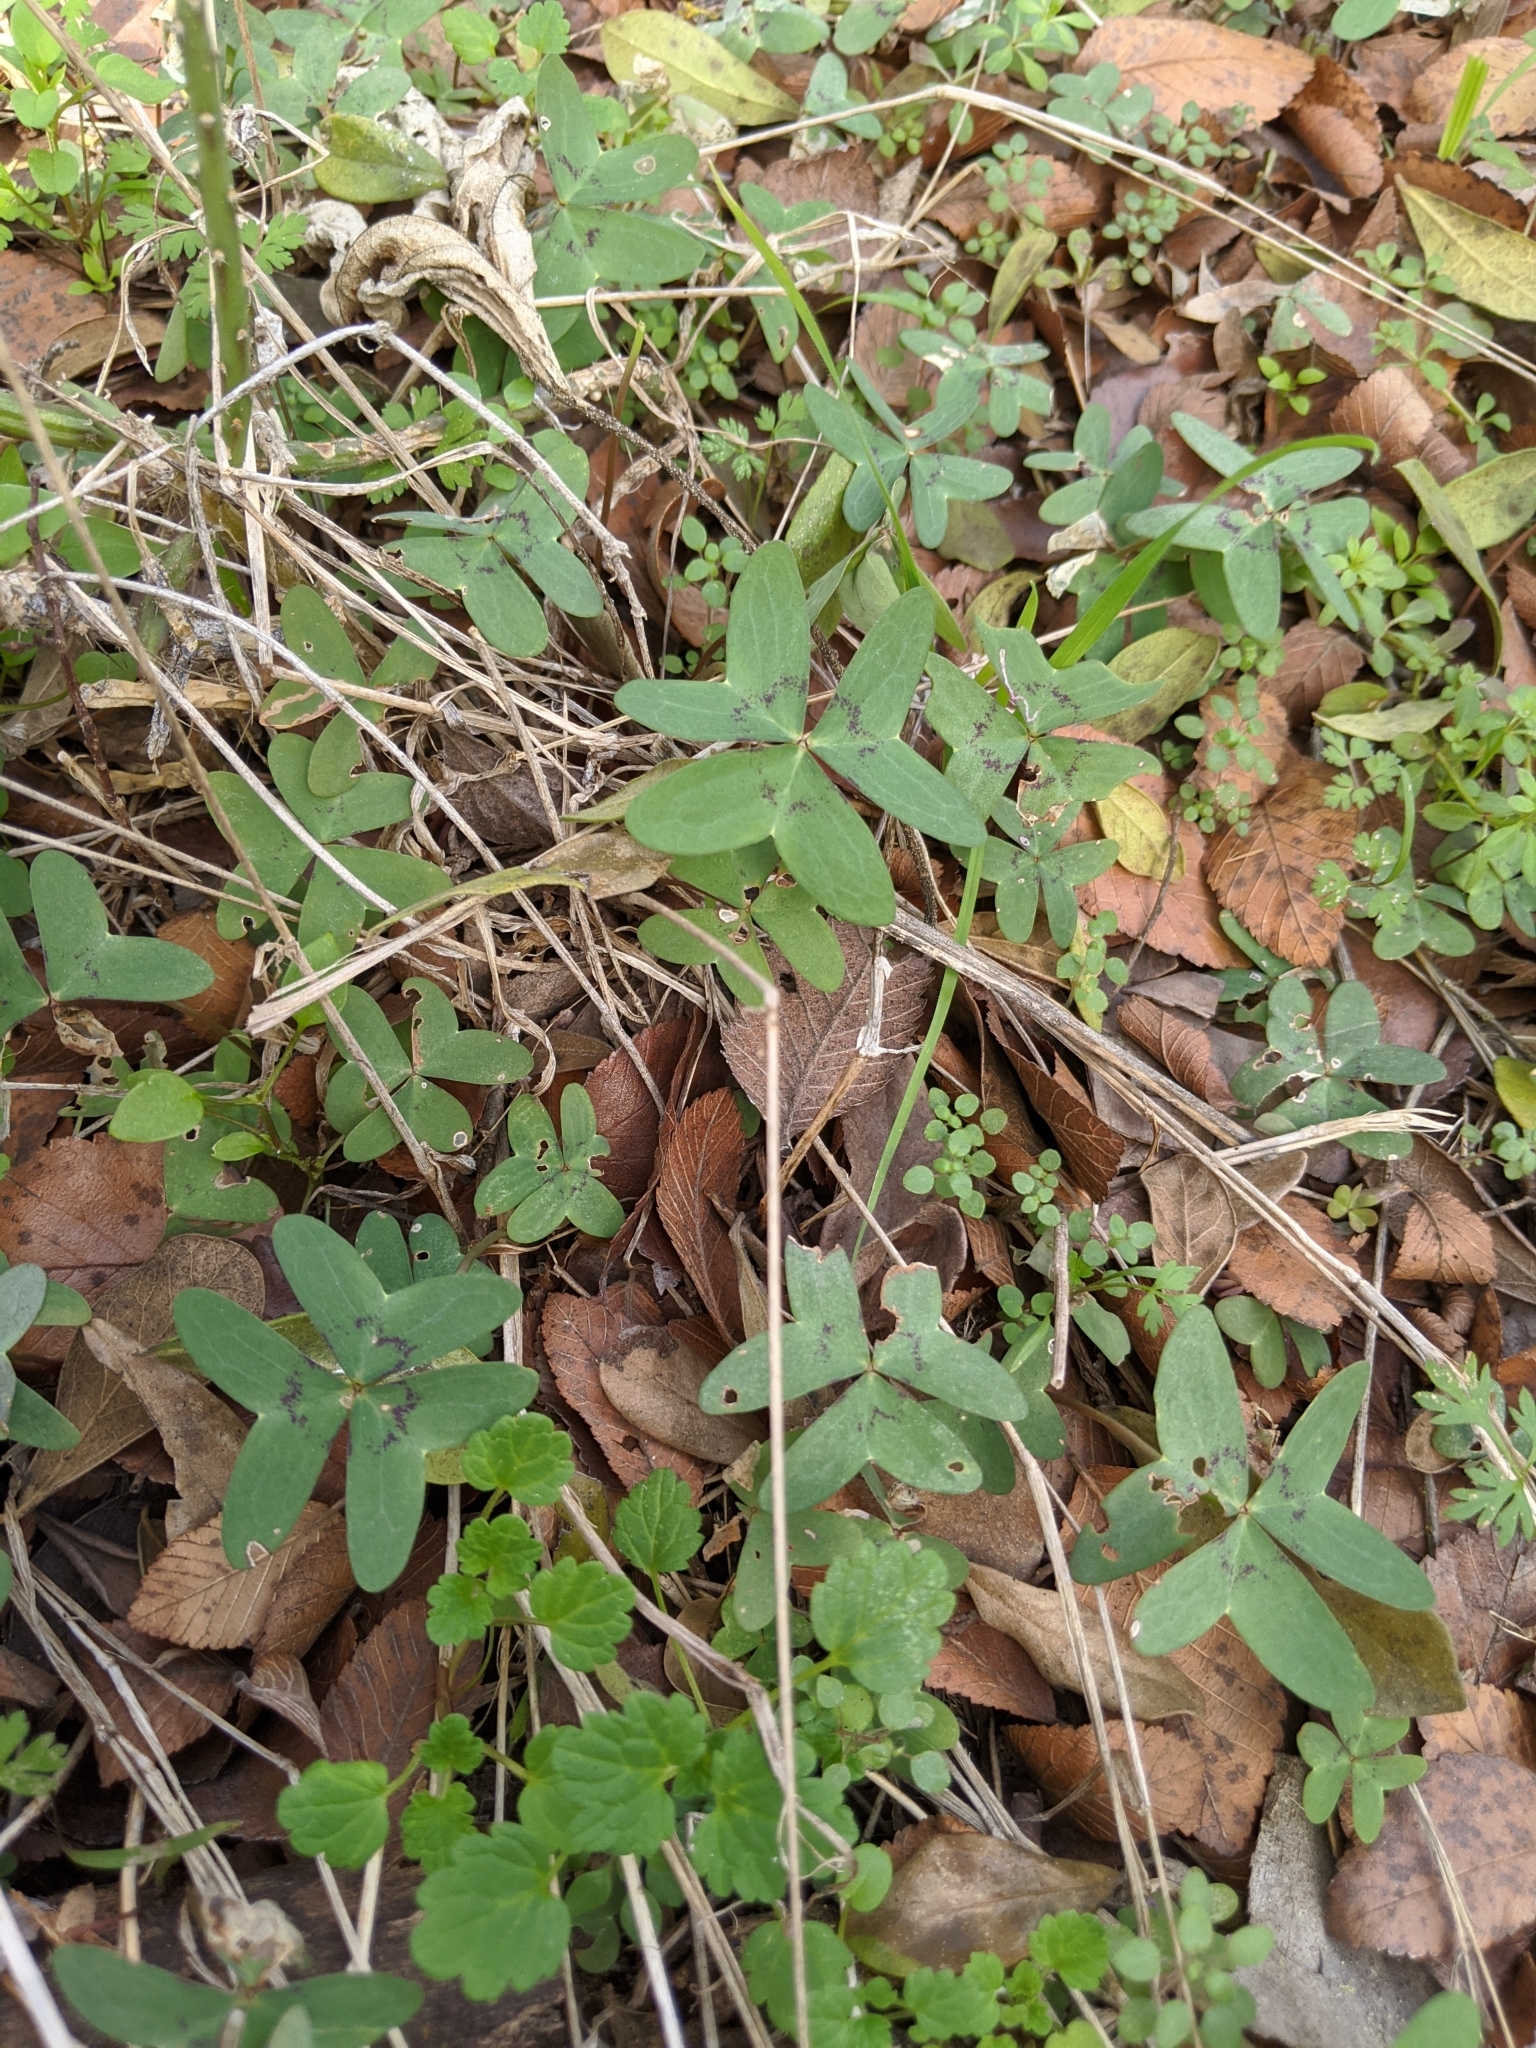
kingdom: Plantae
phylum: Tracheophyta
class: Magnoliopsida
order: Oxalidales
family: Oxalidaceae
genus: Oxalis
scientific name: Oxalis drummondii
